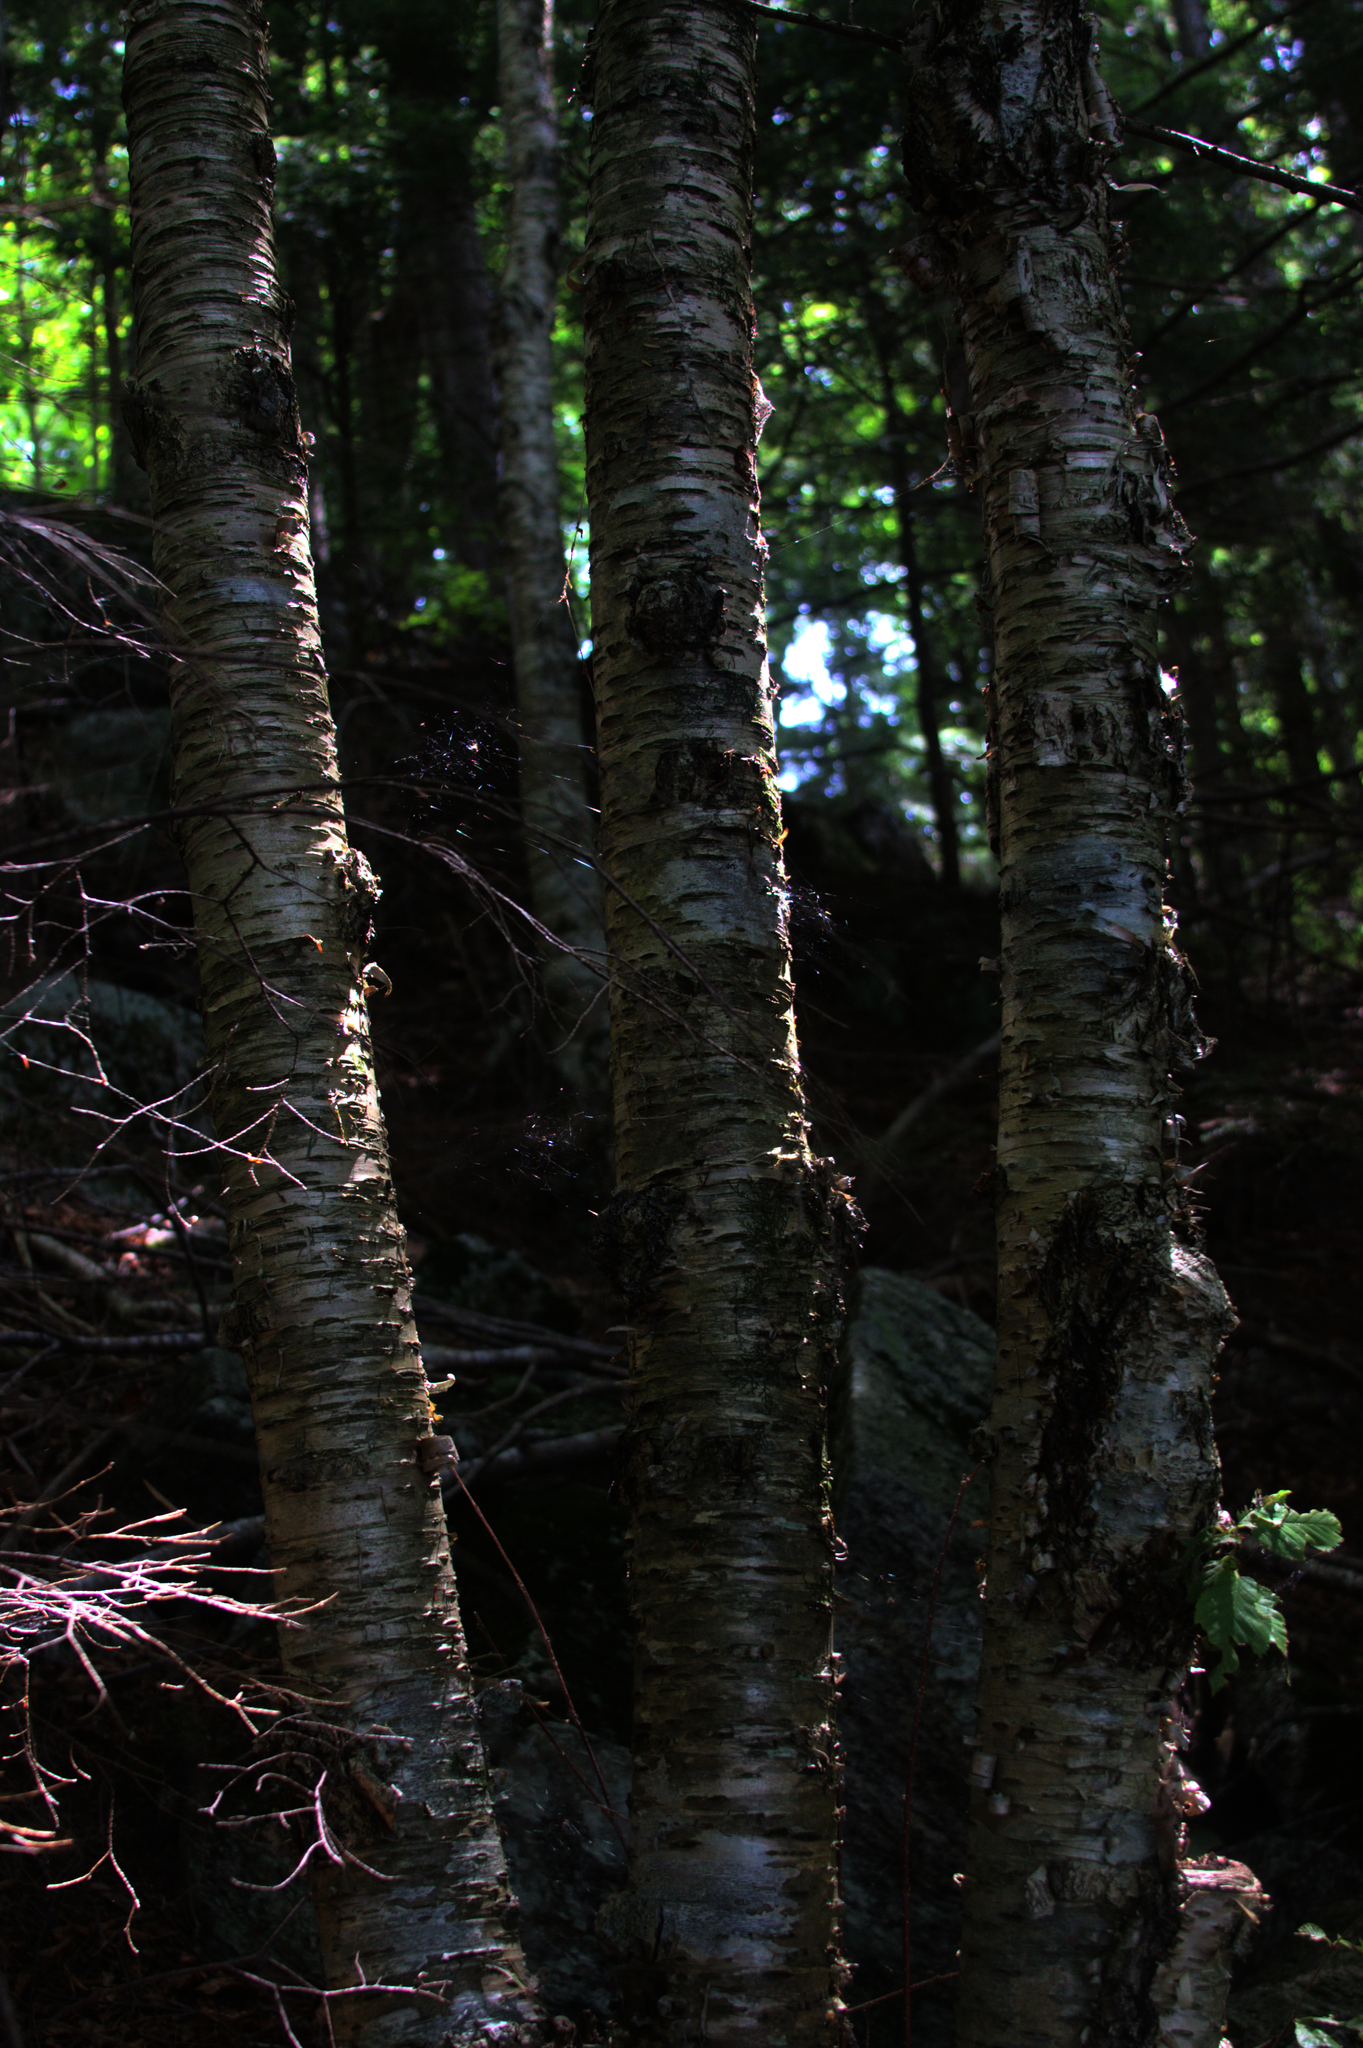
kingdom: Plantae
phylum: Tracheophyta
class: Magnoliopsida
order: Fagales
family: Betulaceae
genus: Betula
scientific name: Betula alleghaniensis
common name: Yellow birch
